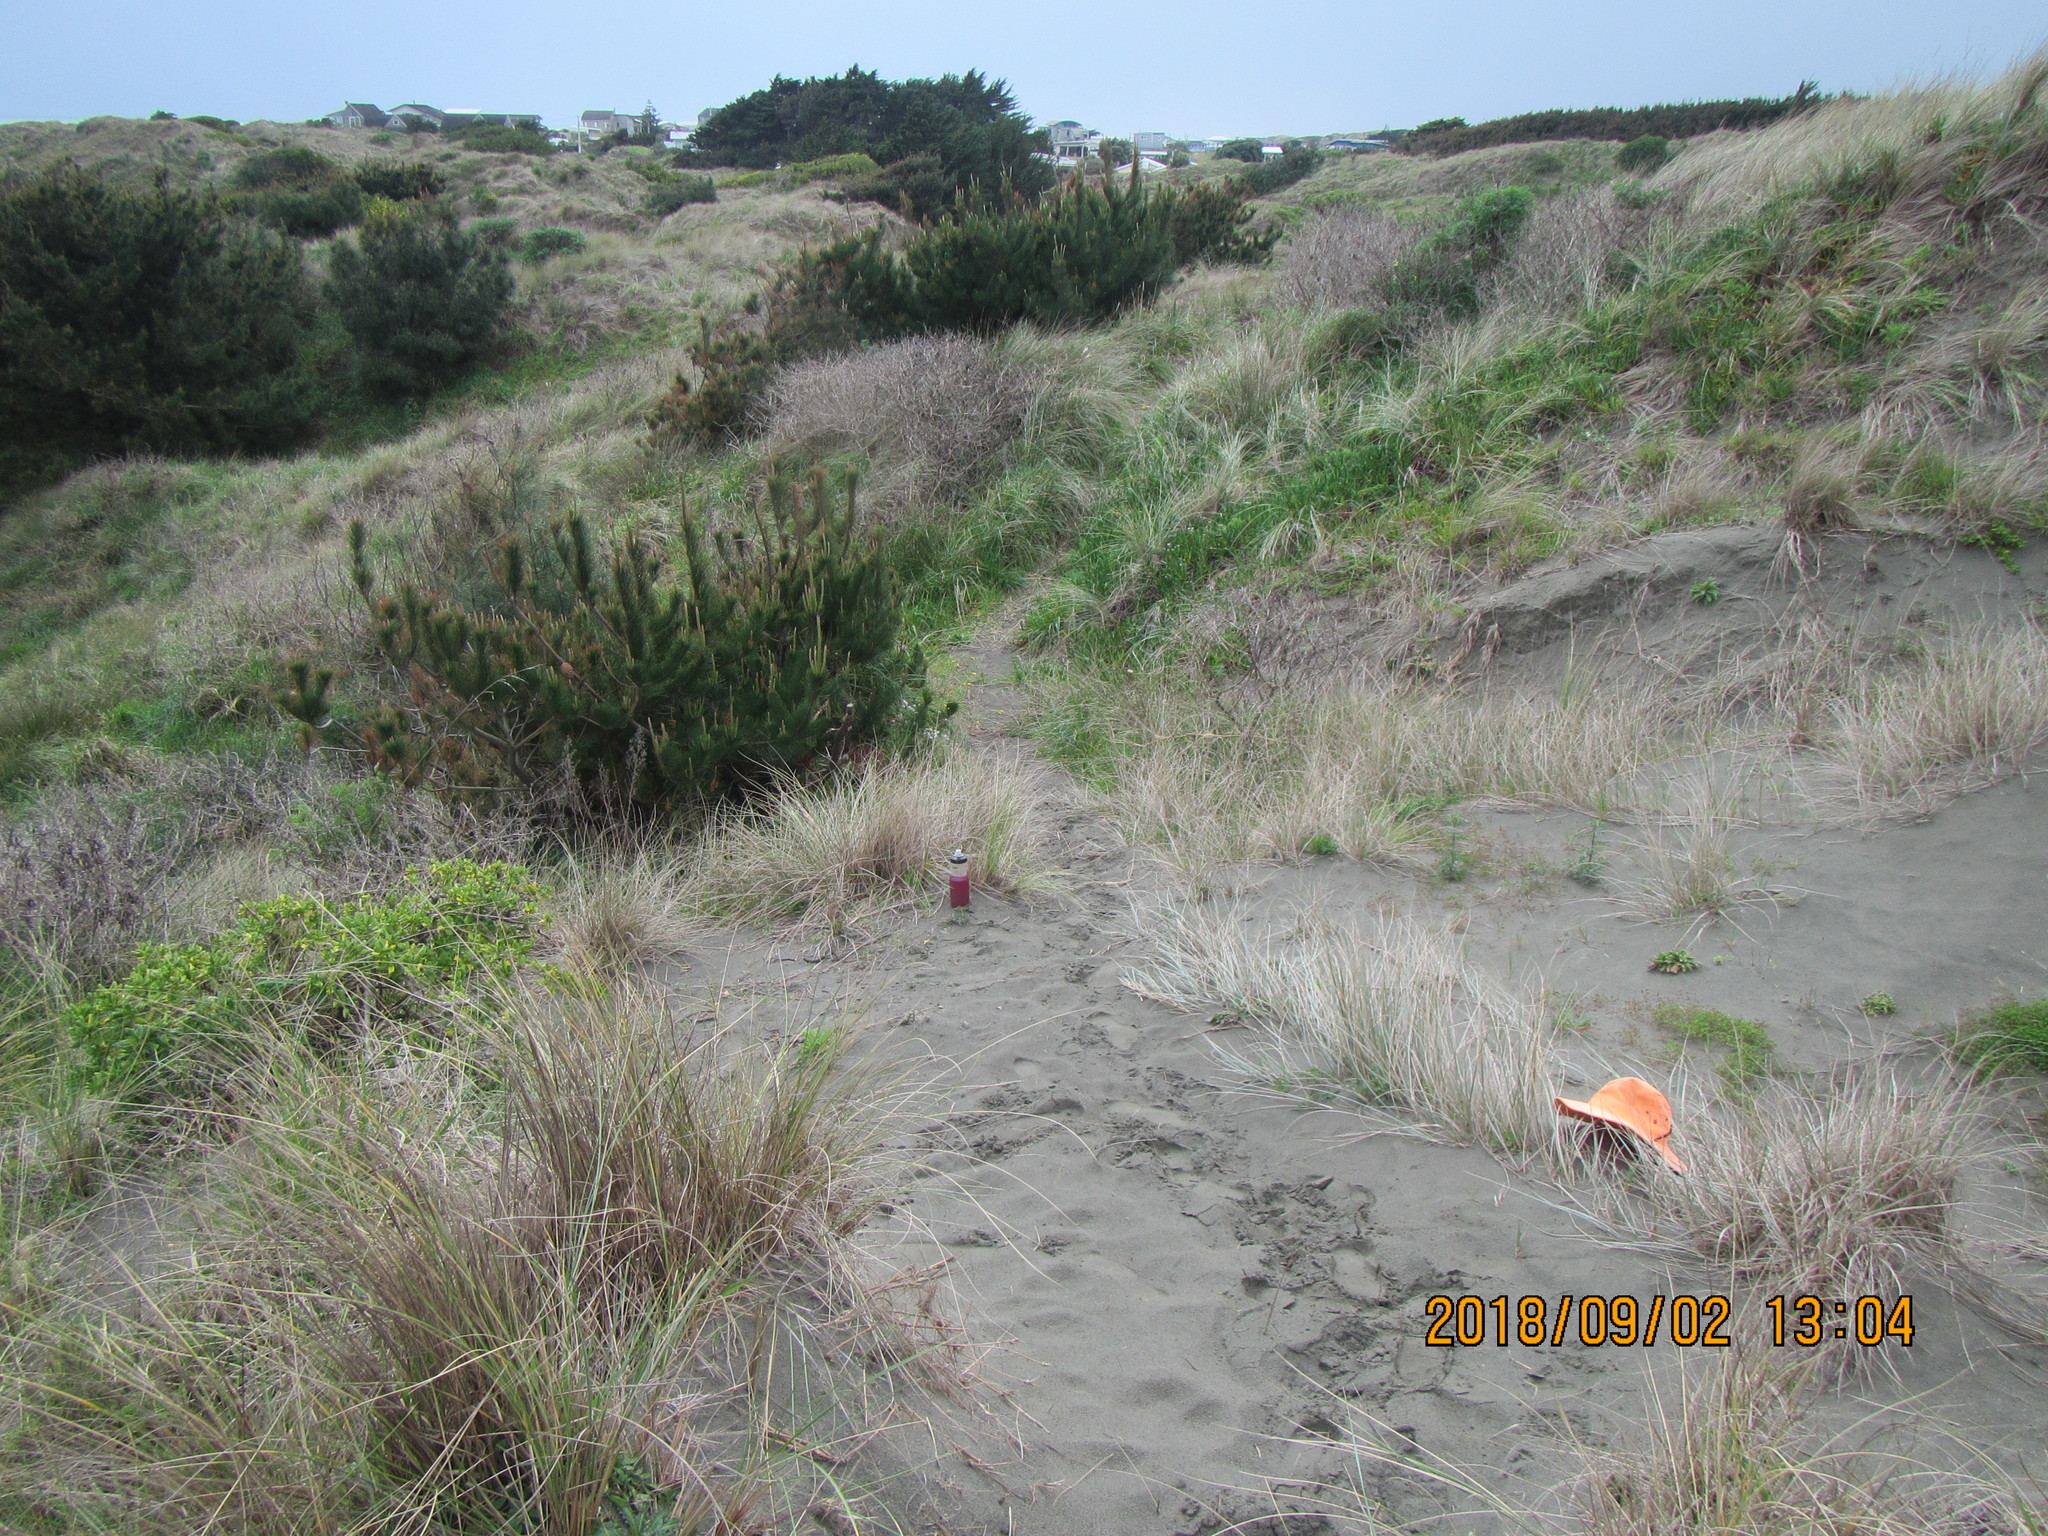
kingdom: Plantae
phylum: Tracheophyta
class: Liliopsida
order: Poales
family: Poaceae
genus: Spinifex
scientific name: Spinifex sericeus
